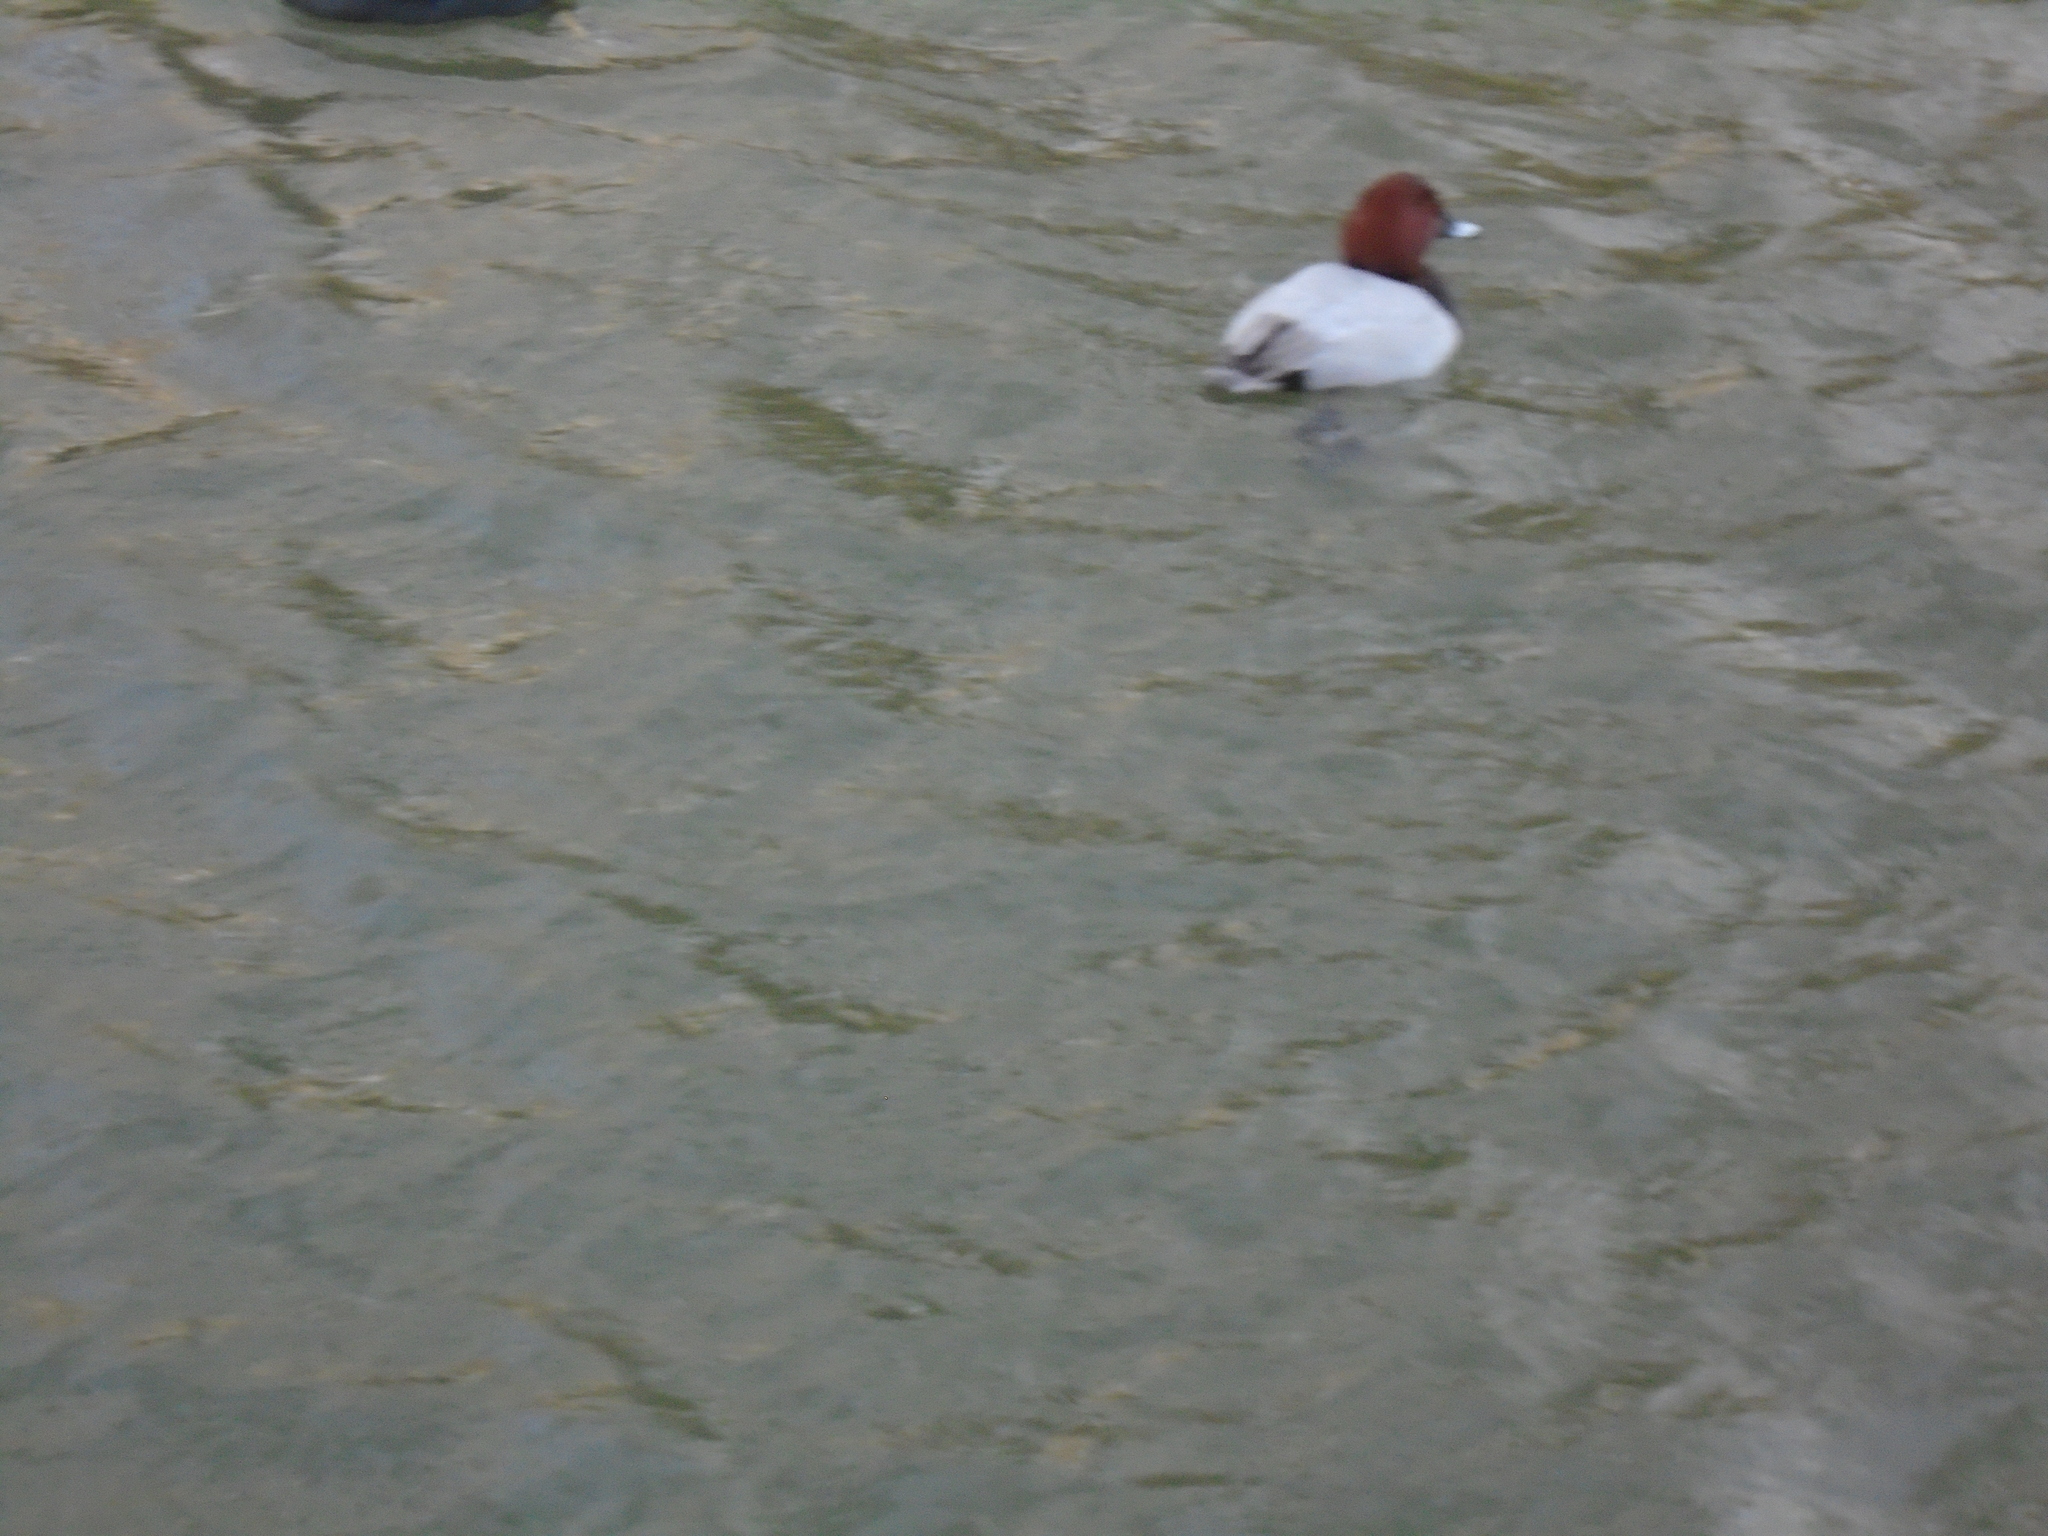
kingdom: Animalia
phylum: Chordata
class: Aves
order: Anseriformes
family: Anatidae
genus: Aythya
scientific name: Aythya ferina
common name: Common pochard
